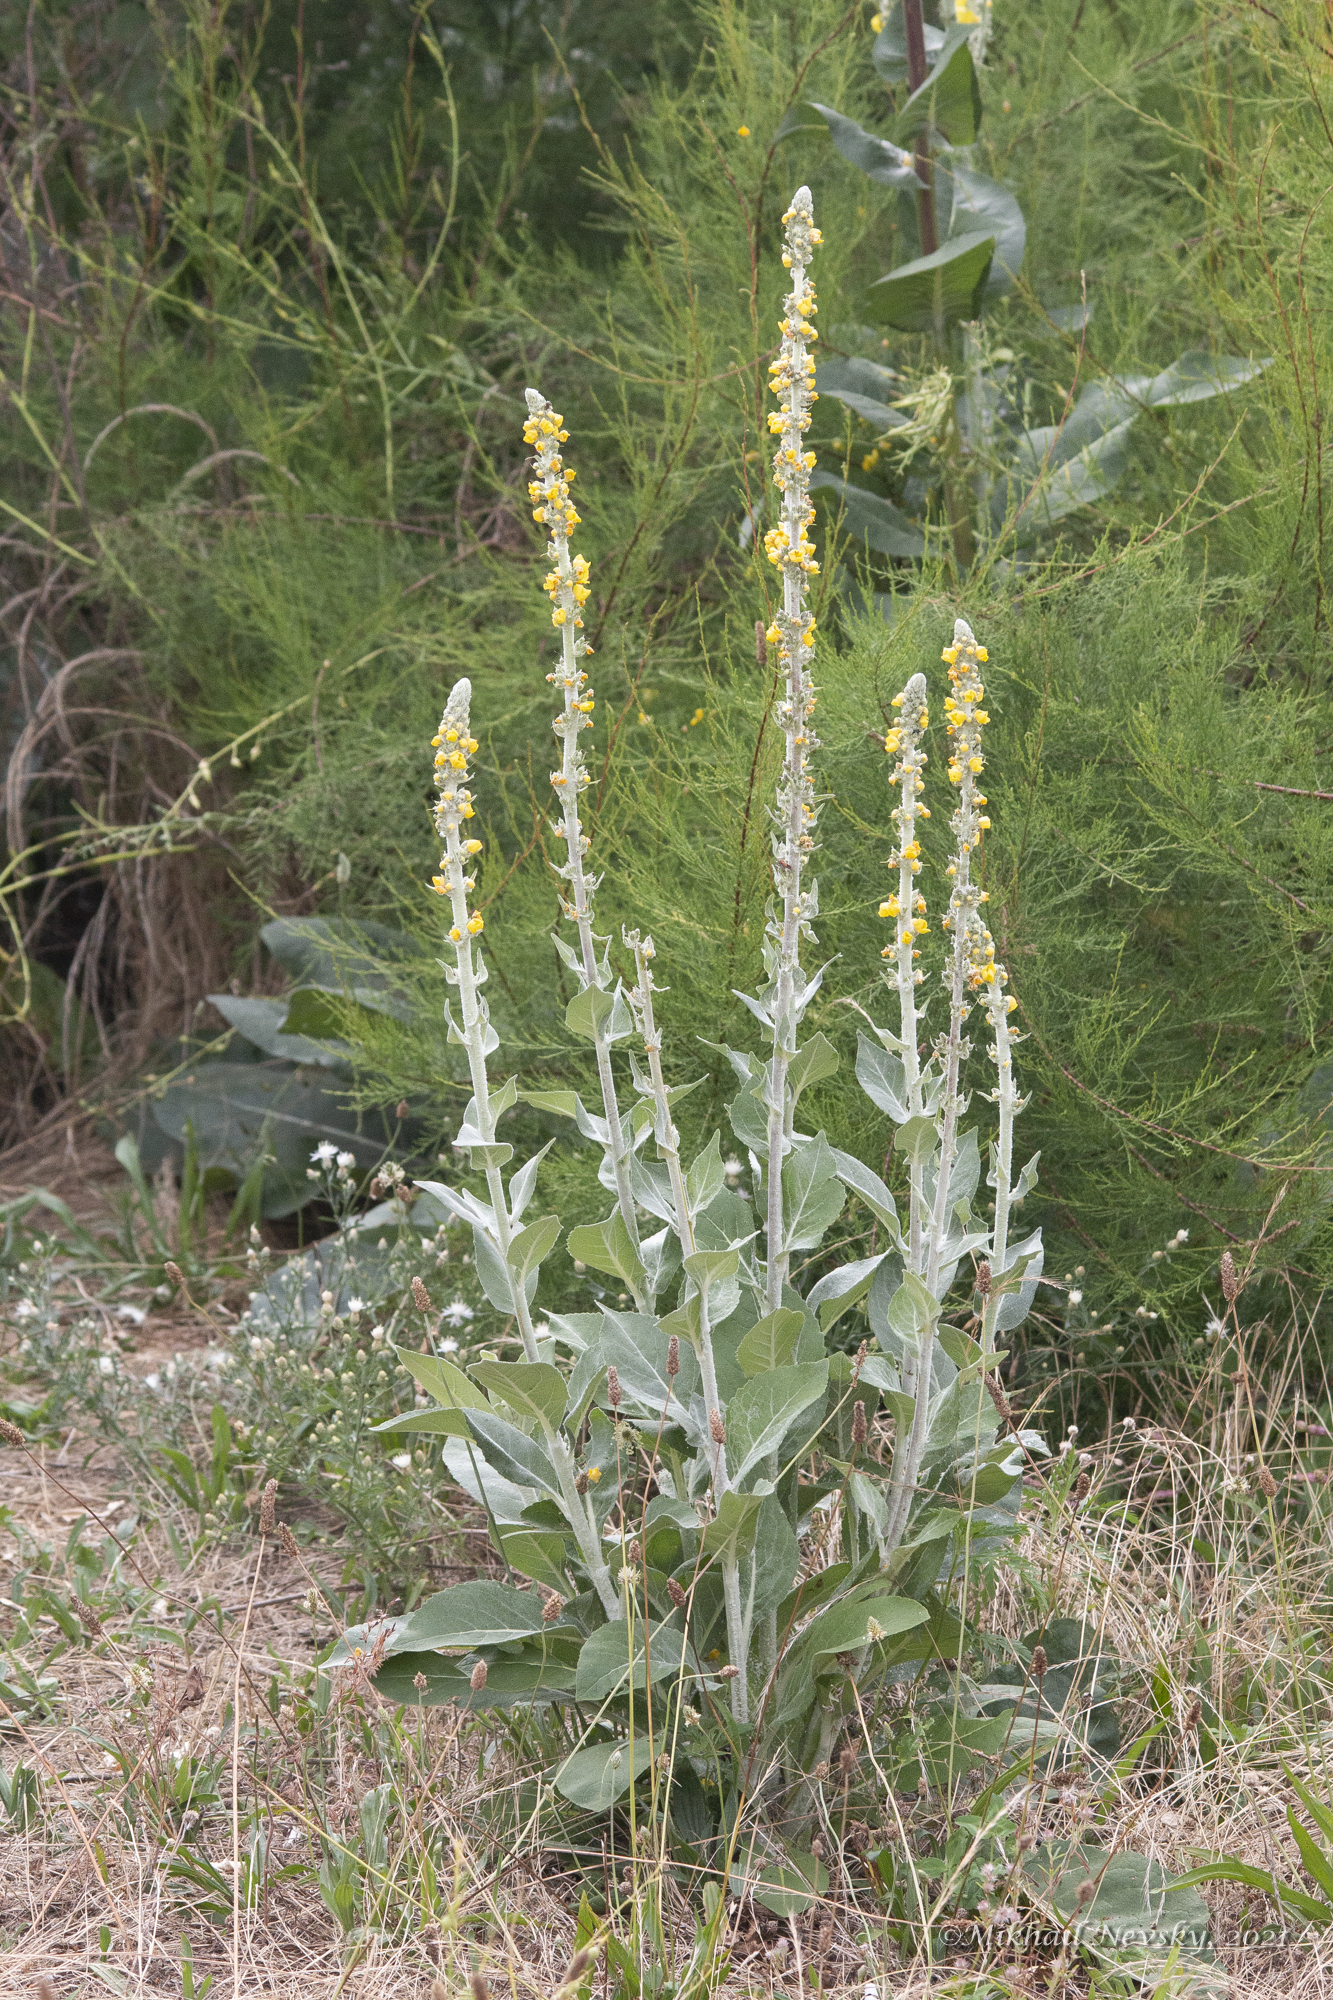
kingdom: Plantae
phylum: Tracheophyta
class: Magnoliopsida
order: Lamiales
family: Scrophulariaceae
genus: Verbascum
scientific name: Verbascum gnaphalodes
